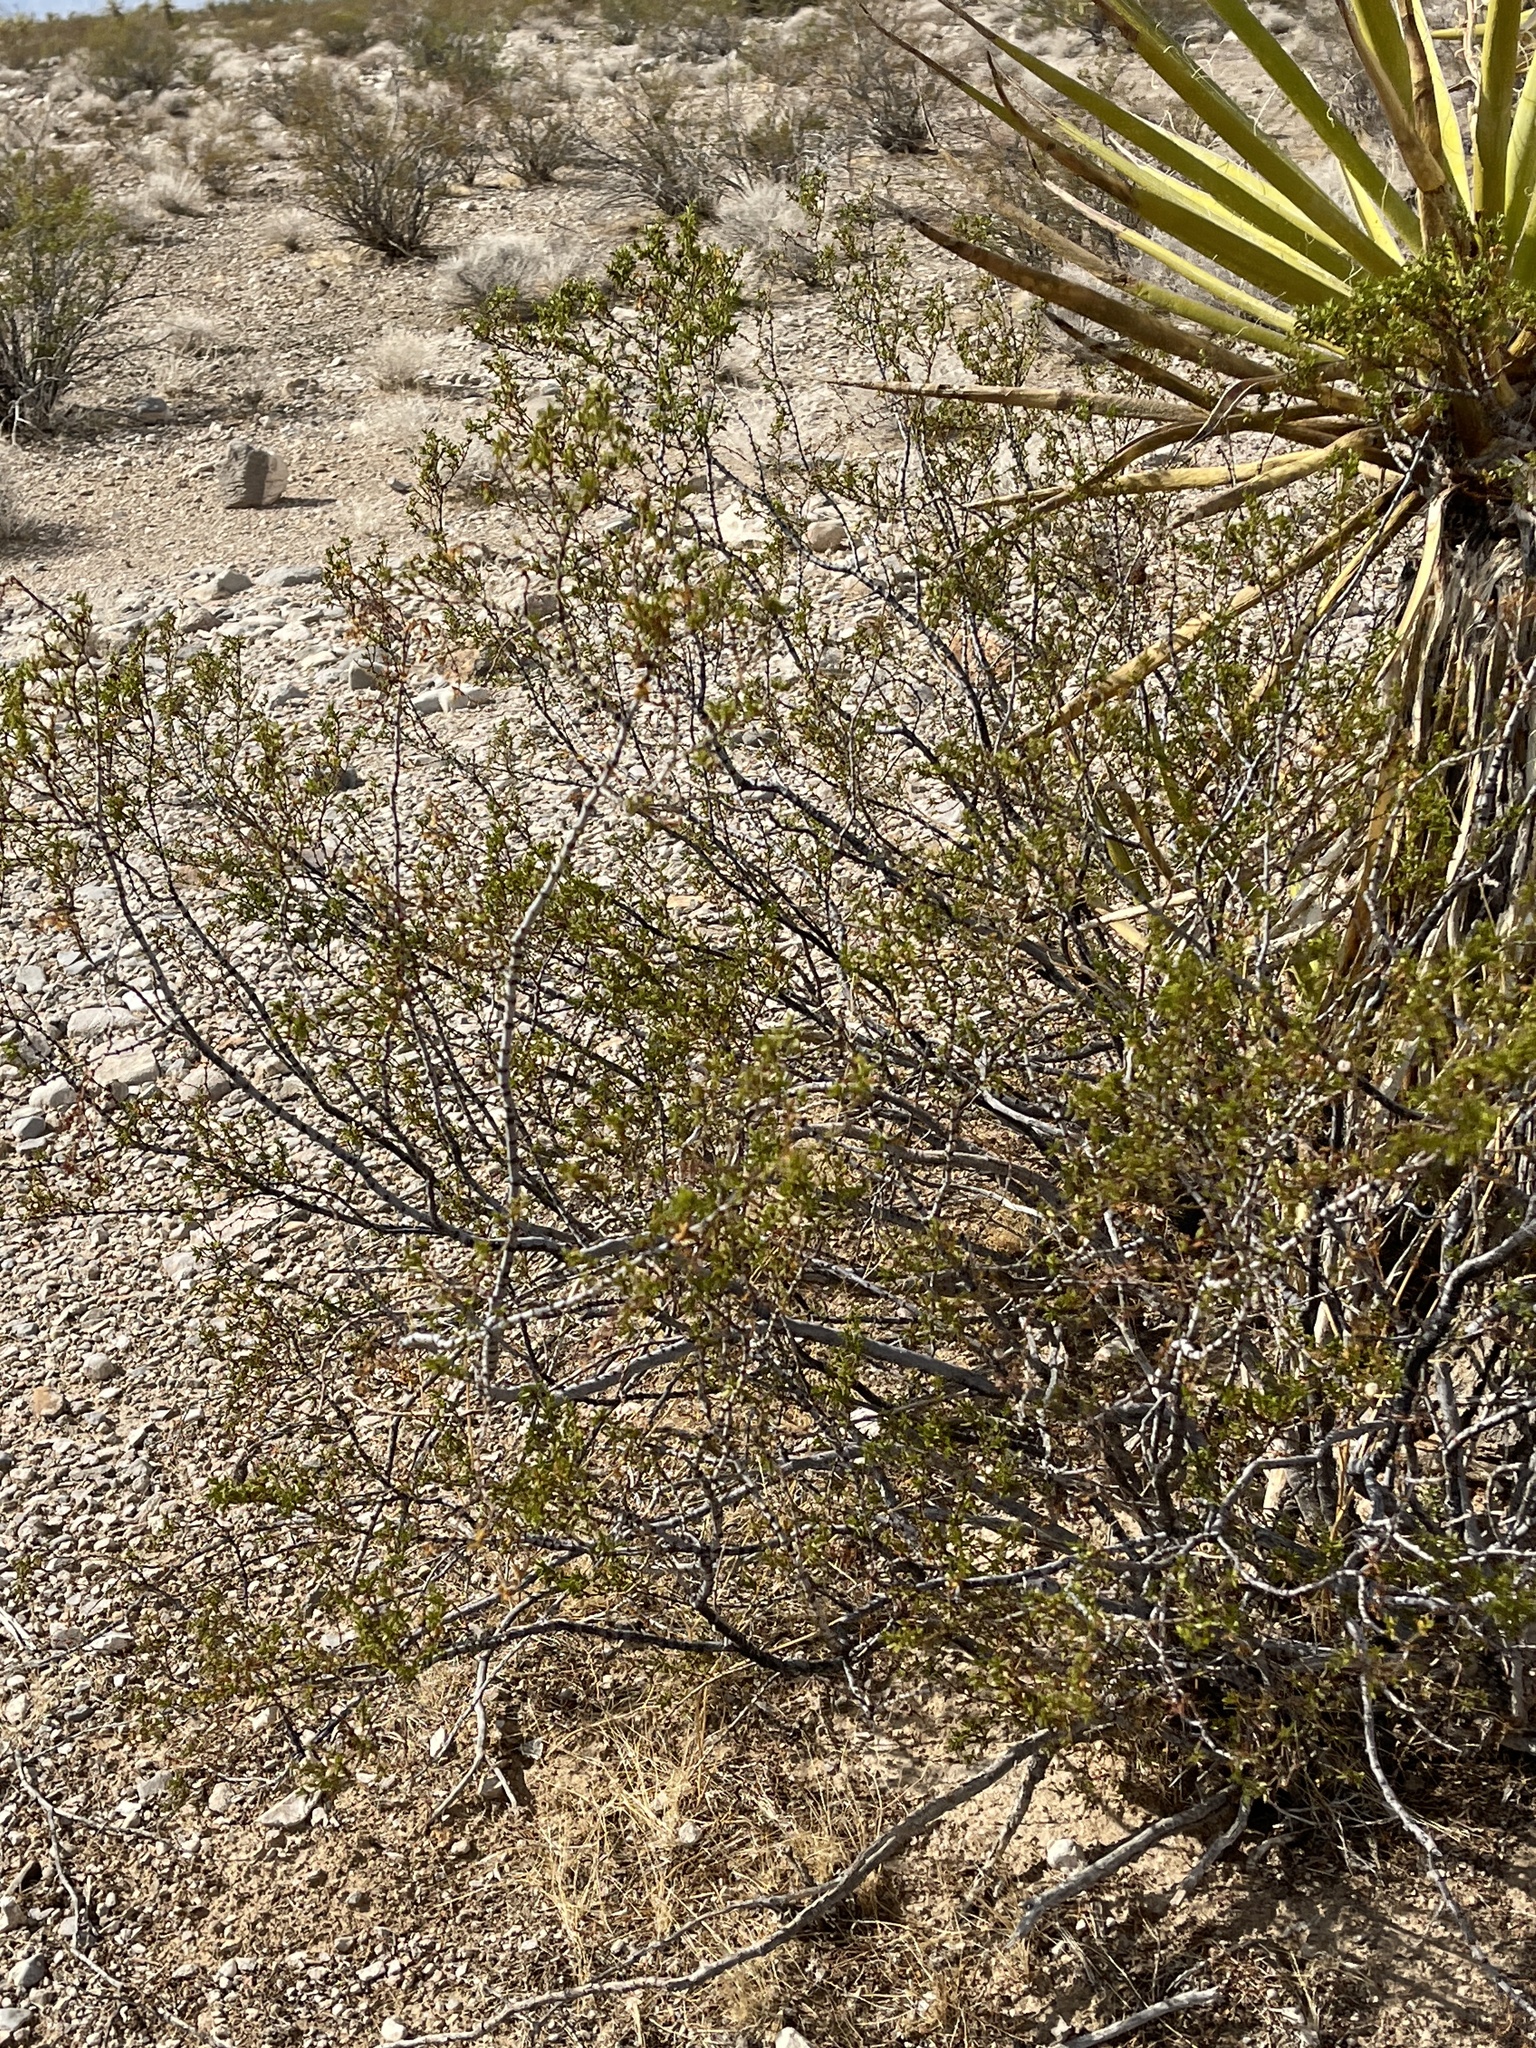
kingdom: Plantae
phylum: Tracheophyta
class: Magnoliopsida
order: Zygophyllales
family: Zygophyllaceae
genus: Larrea
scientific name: Larrea tridentata
